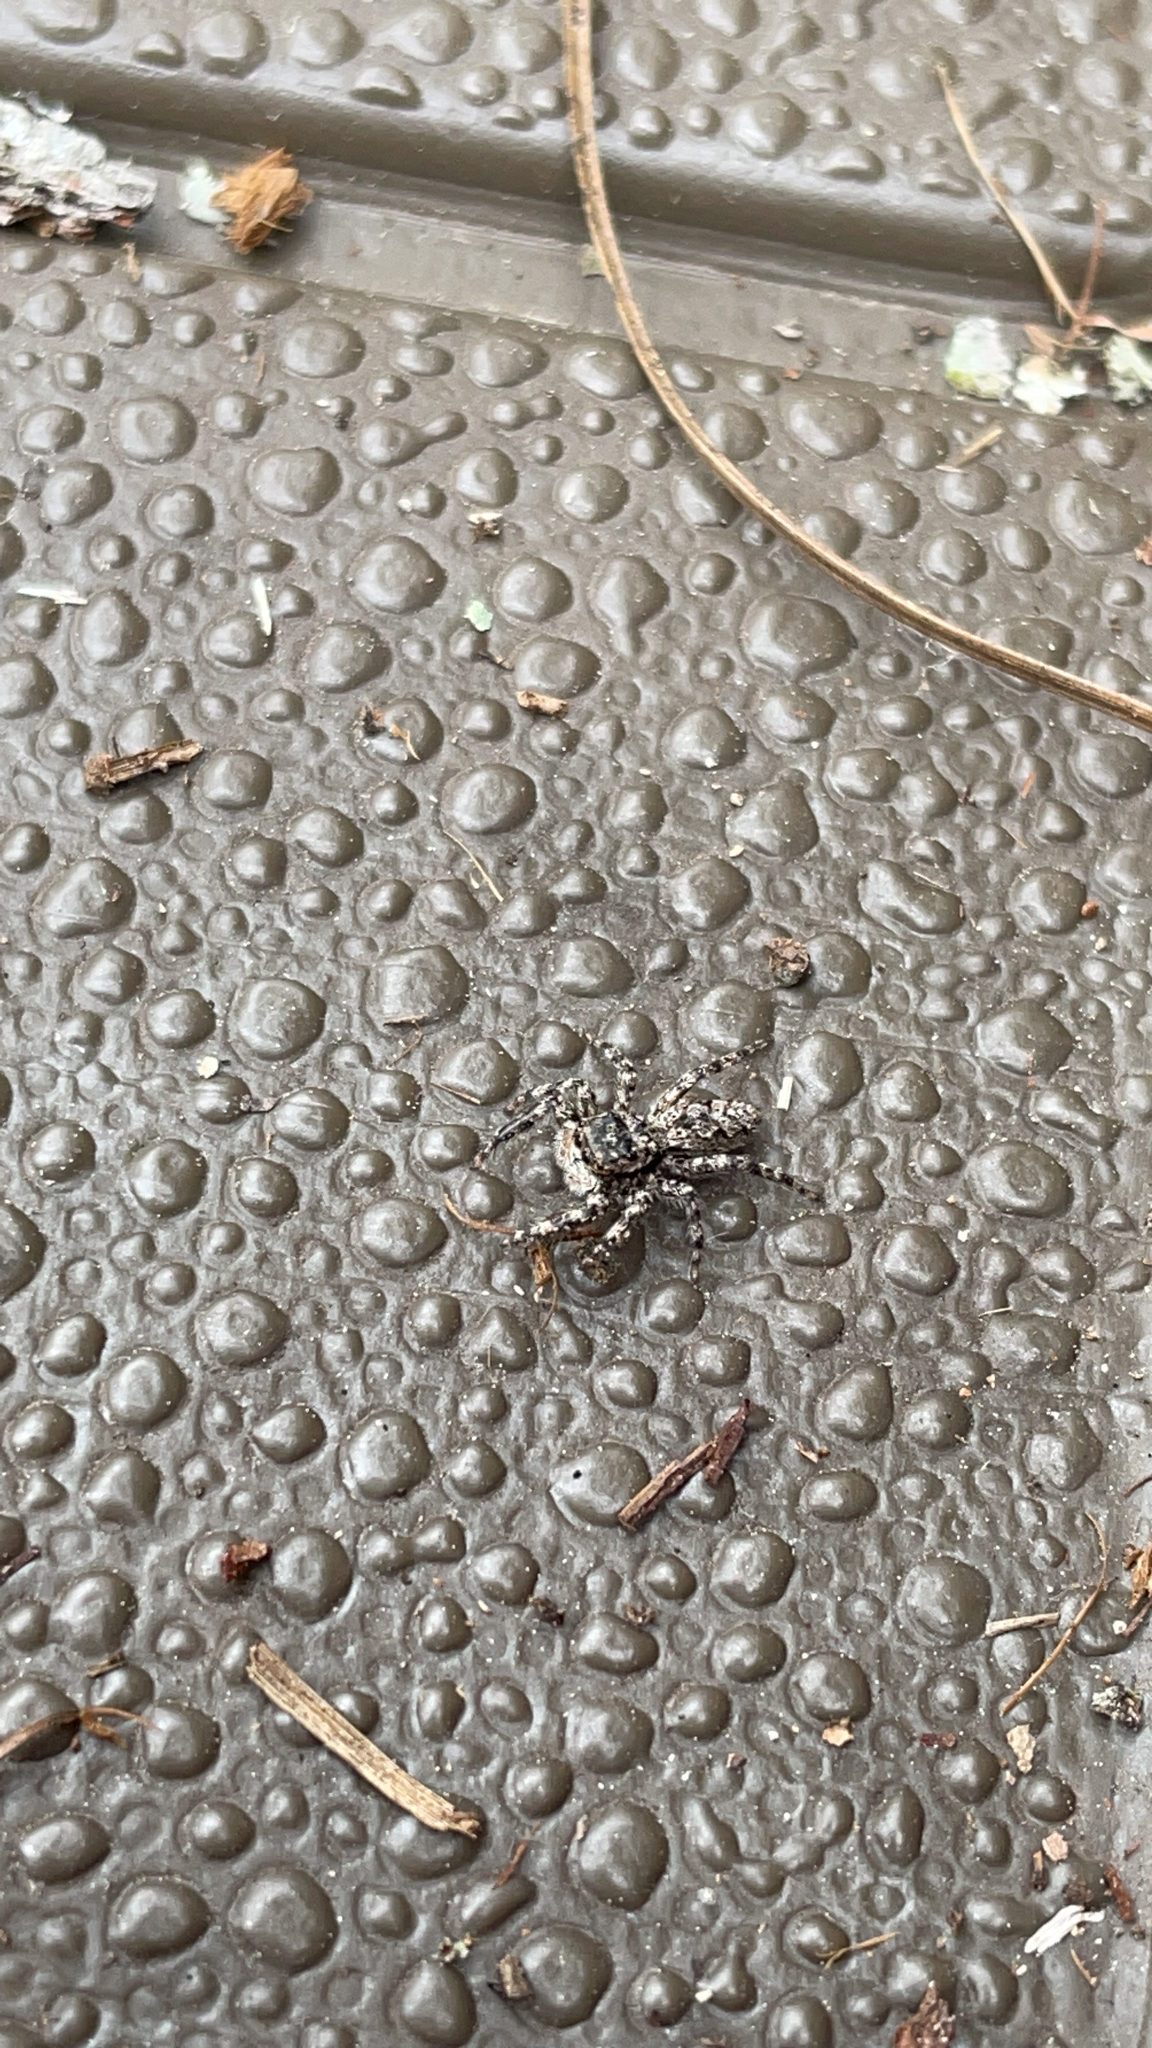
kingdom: Animalia
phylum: Arthropoda
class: Arachnida
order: Araneae
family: Salticidae
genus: Platycryptus
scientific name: Platycryptus undatus
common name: Tan jumping spider
